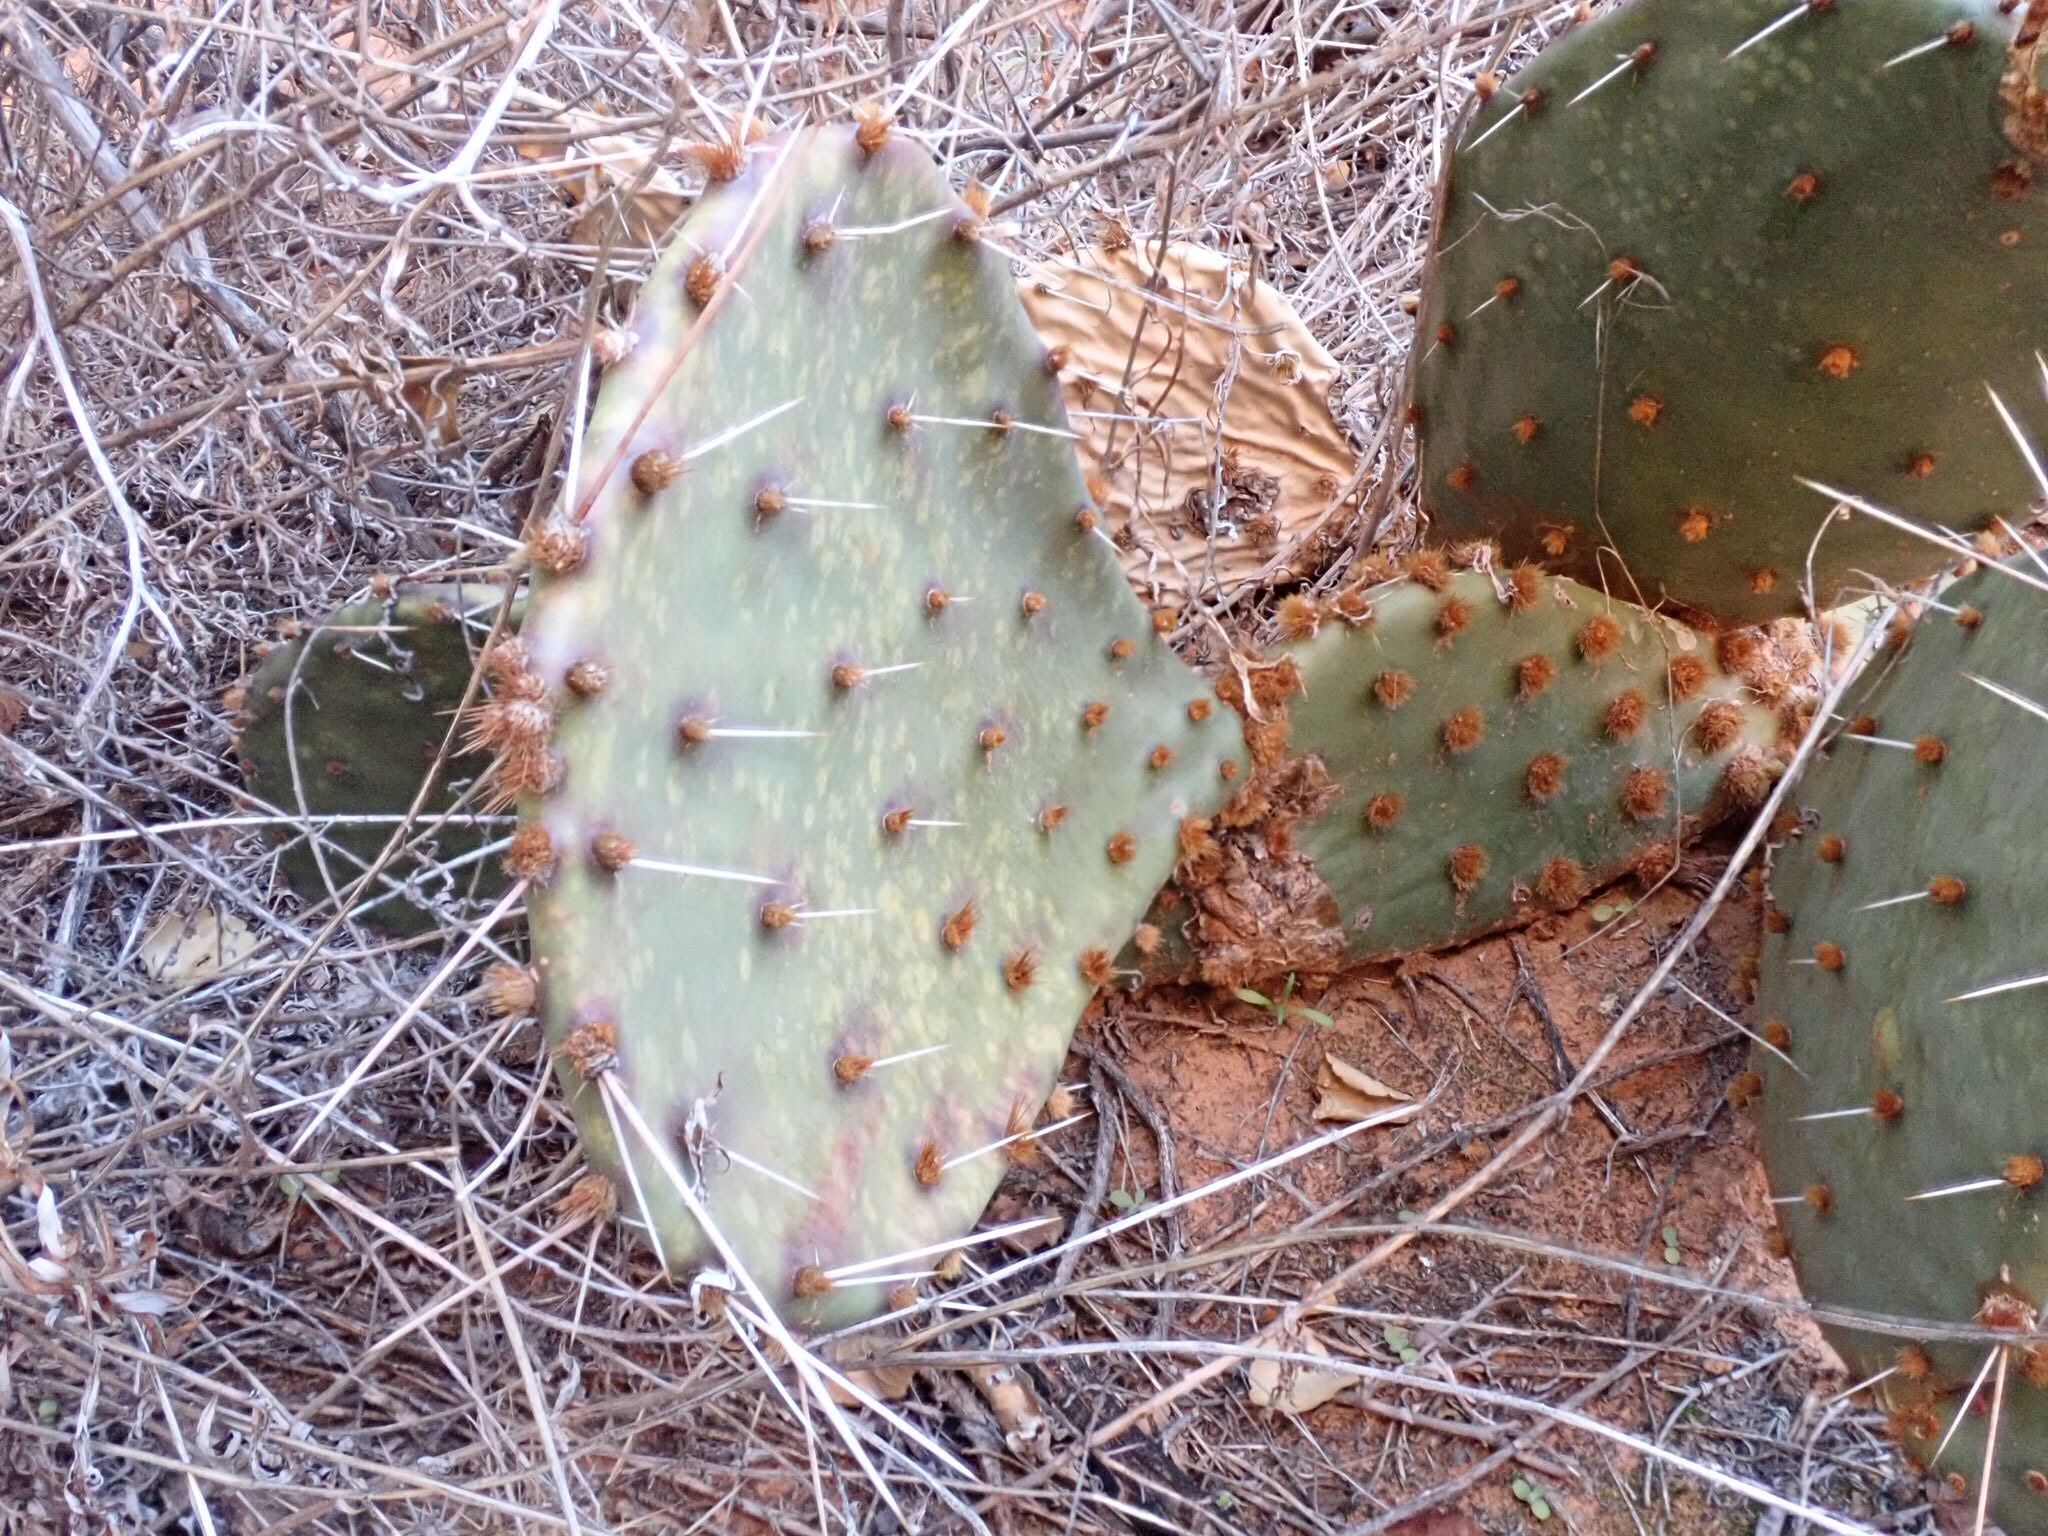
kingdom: Plantae
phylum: Tracheophyta
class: Magnoliopsida
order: Caryophyllales
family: Cactaceae
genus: Opuntia
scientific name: Opuntia phaeacantha
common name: New mexico prickly-pear
